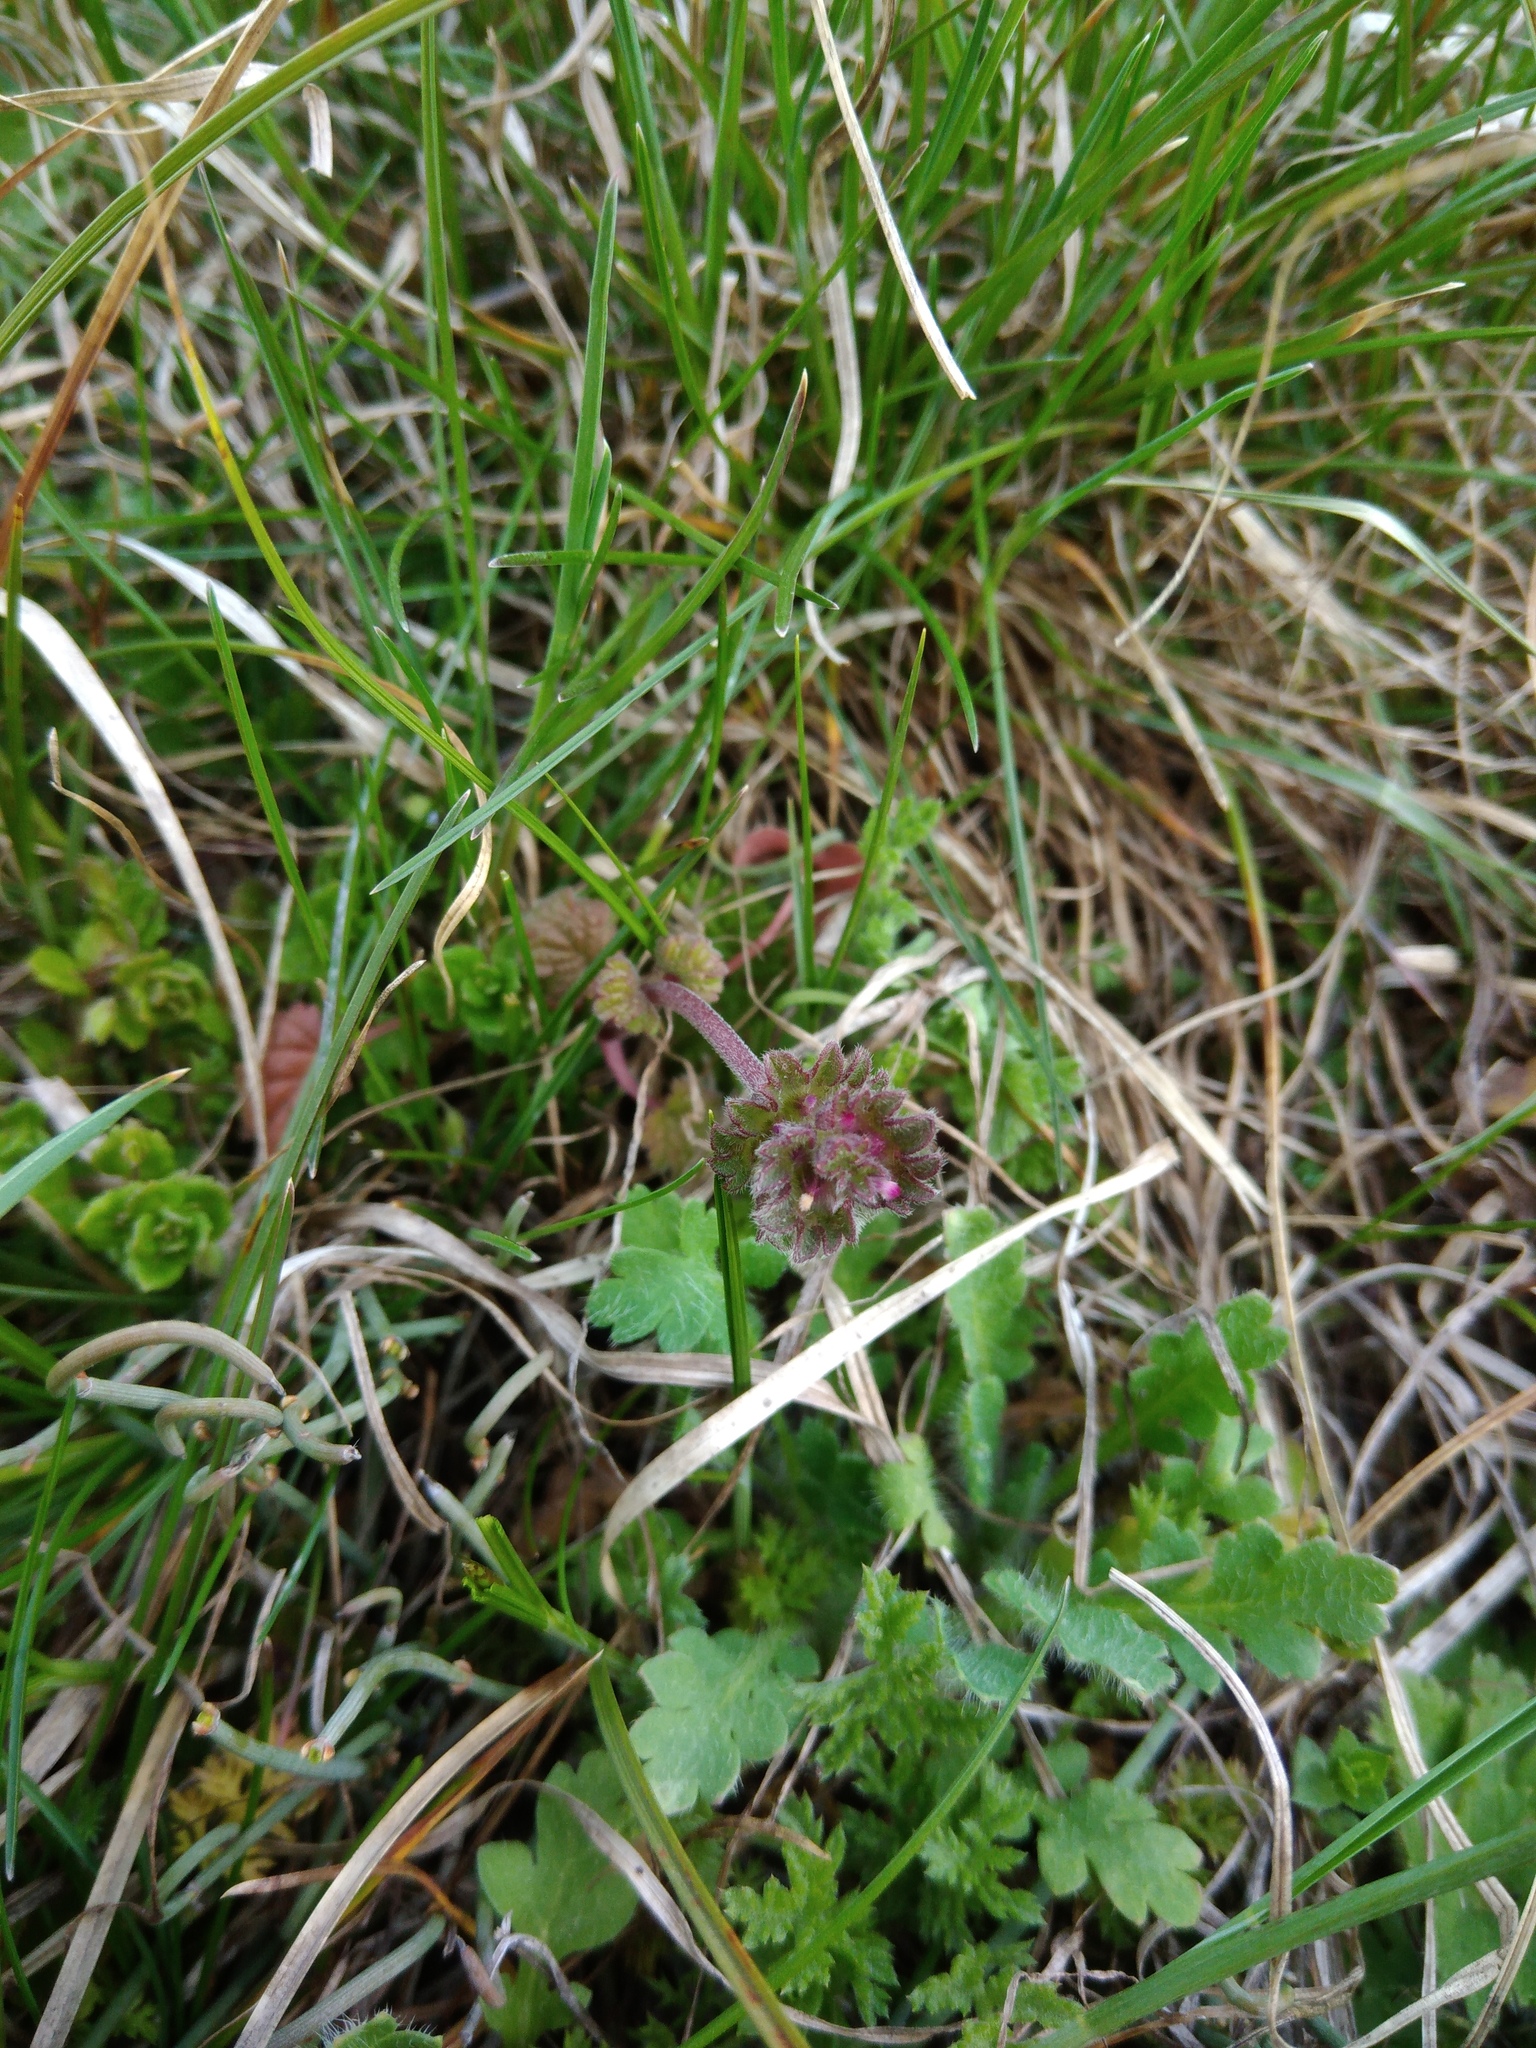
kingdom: Plantae
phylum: Tracheophyta
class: Magnoliopsida
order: Lamiales
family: Lamiaceae
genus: Lamium
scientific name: Lamium amplexicaule
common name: Henbit dead-nettle
